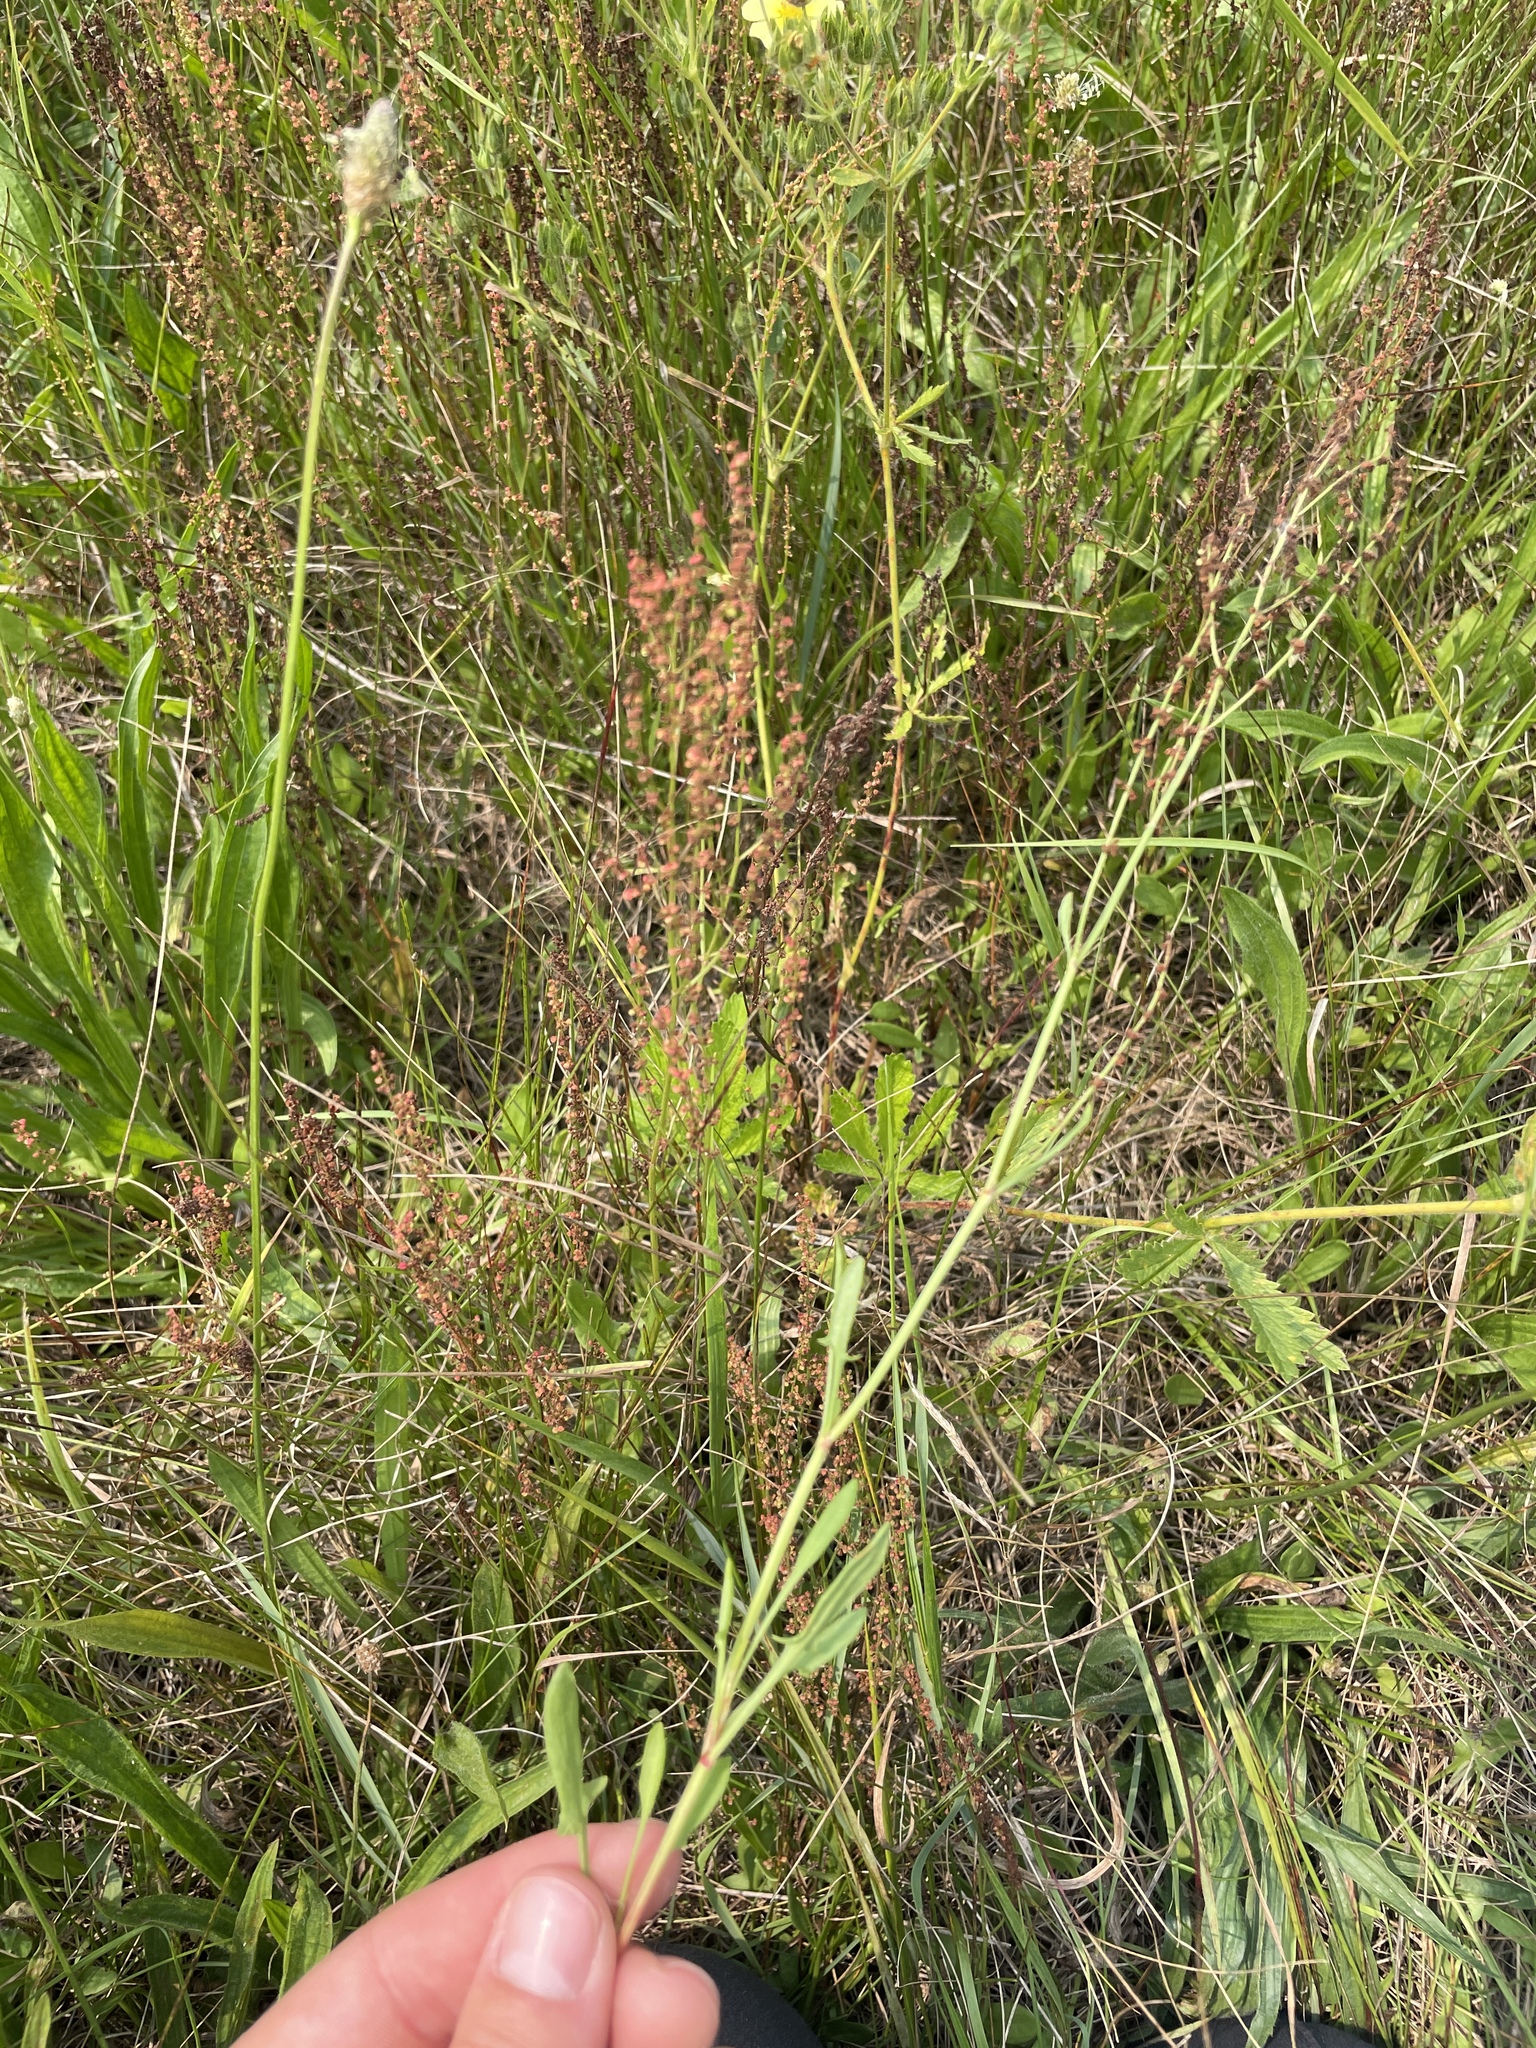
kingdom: Plantae
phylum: Tracheophyta
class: Magnoliopsida
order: Caryophyllales
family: Polygonaceae
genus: Rumex
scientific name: Rumex acetosella
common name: Common sheep sorrel
